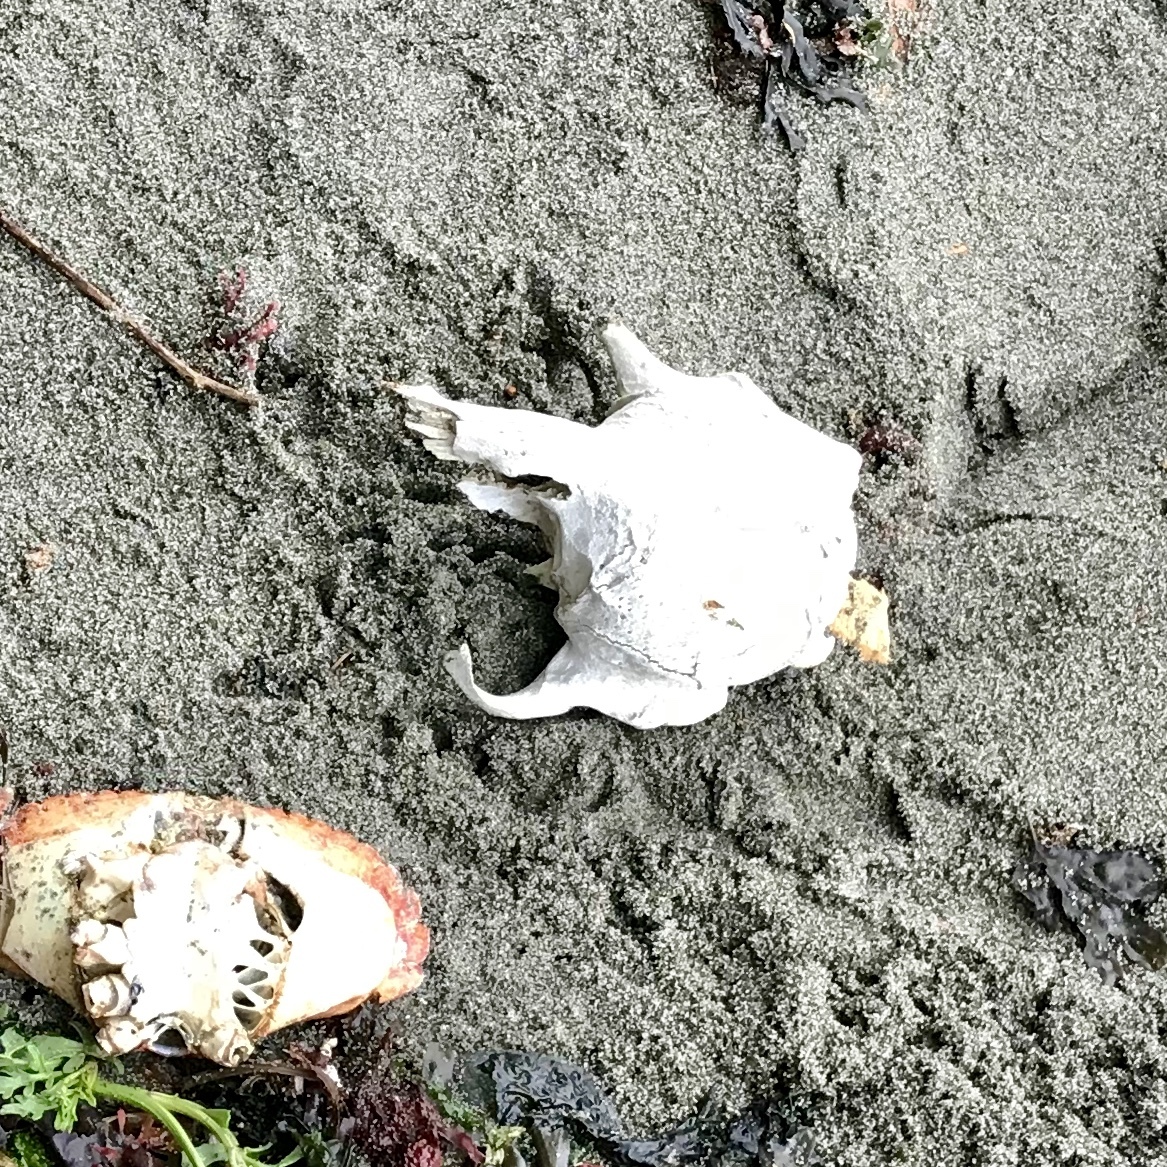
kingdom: Animalia
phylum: Chordata
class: Mammalia
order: Carnivora
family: Phocidae
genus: Phoca
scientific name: Phoca vitulina
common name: Harbor seal
